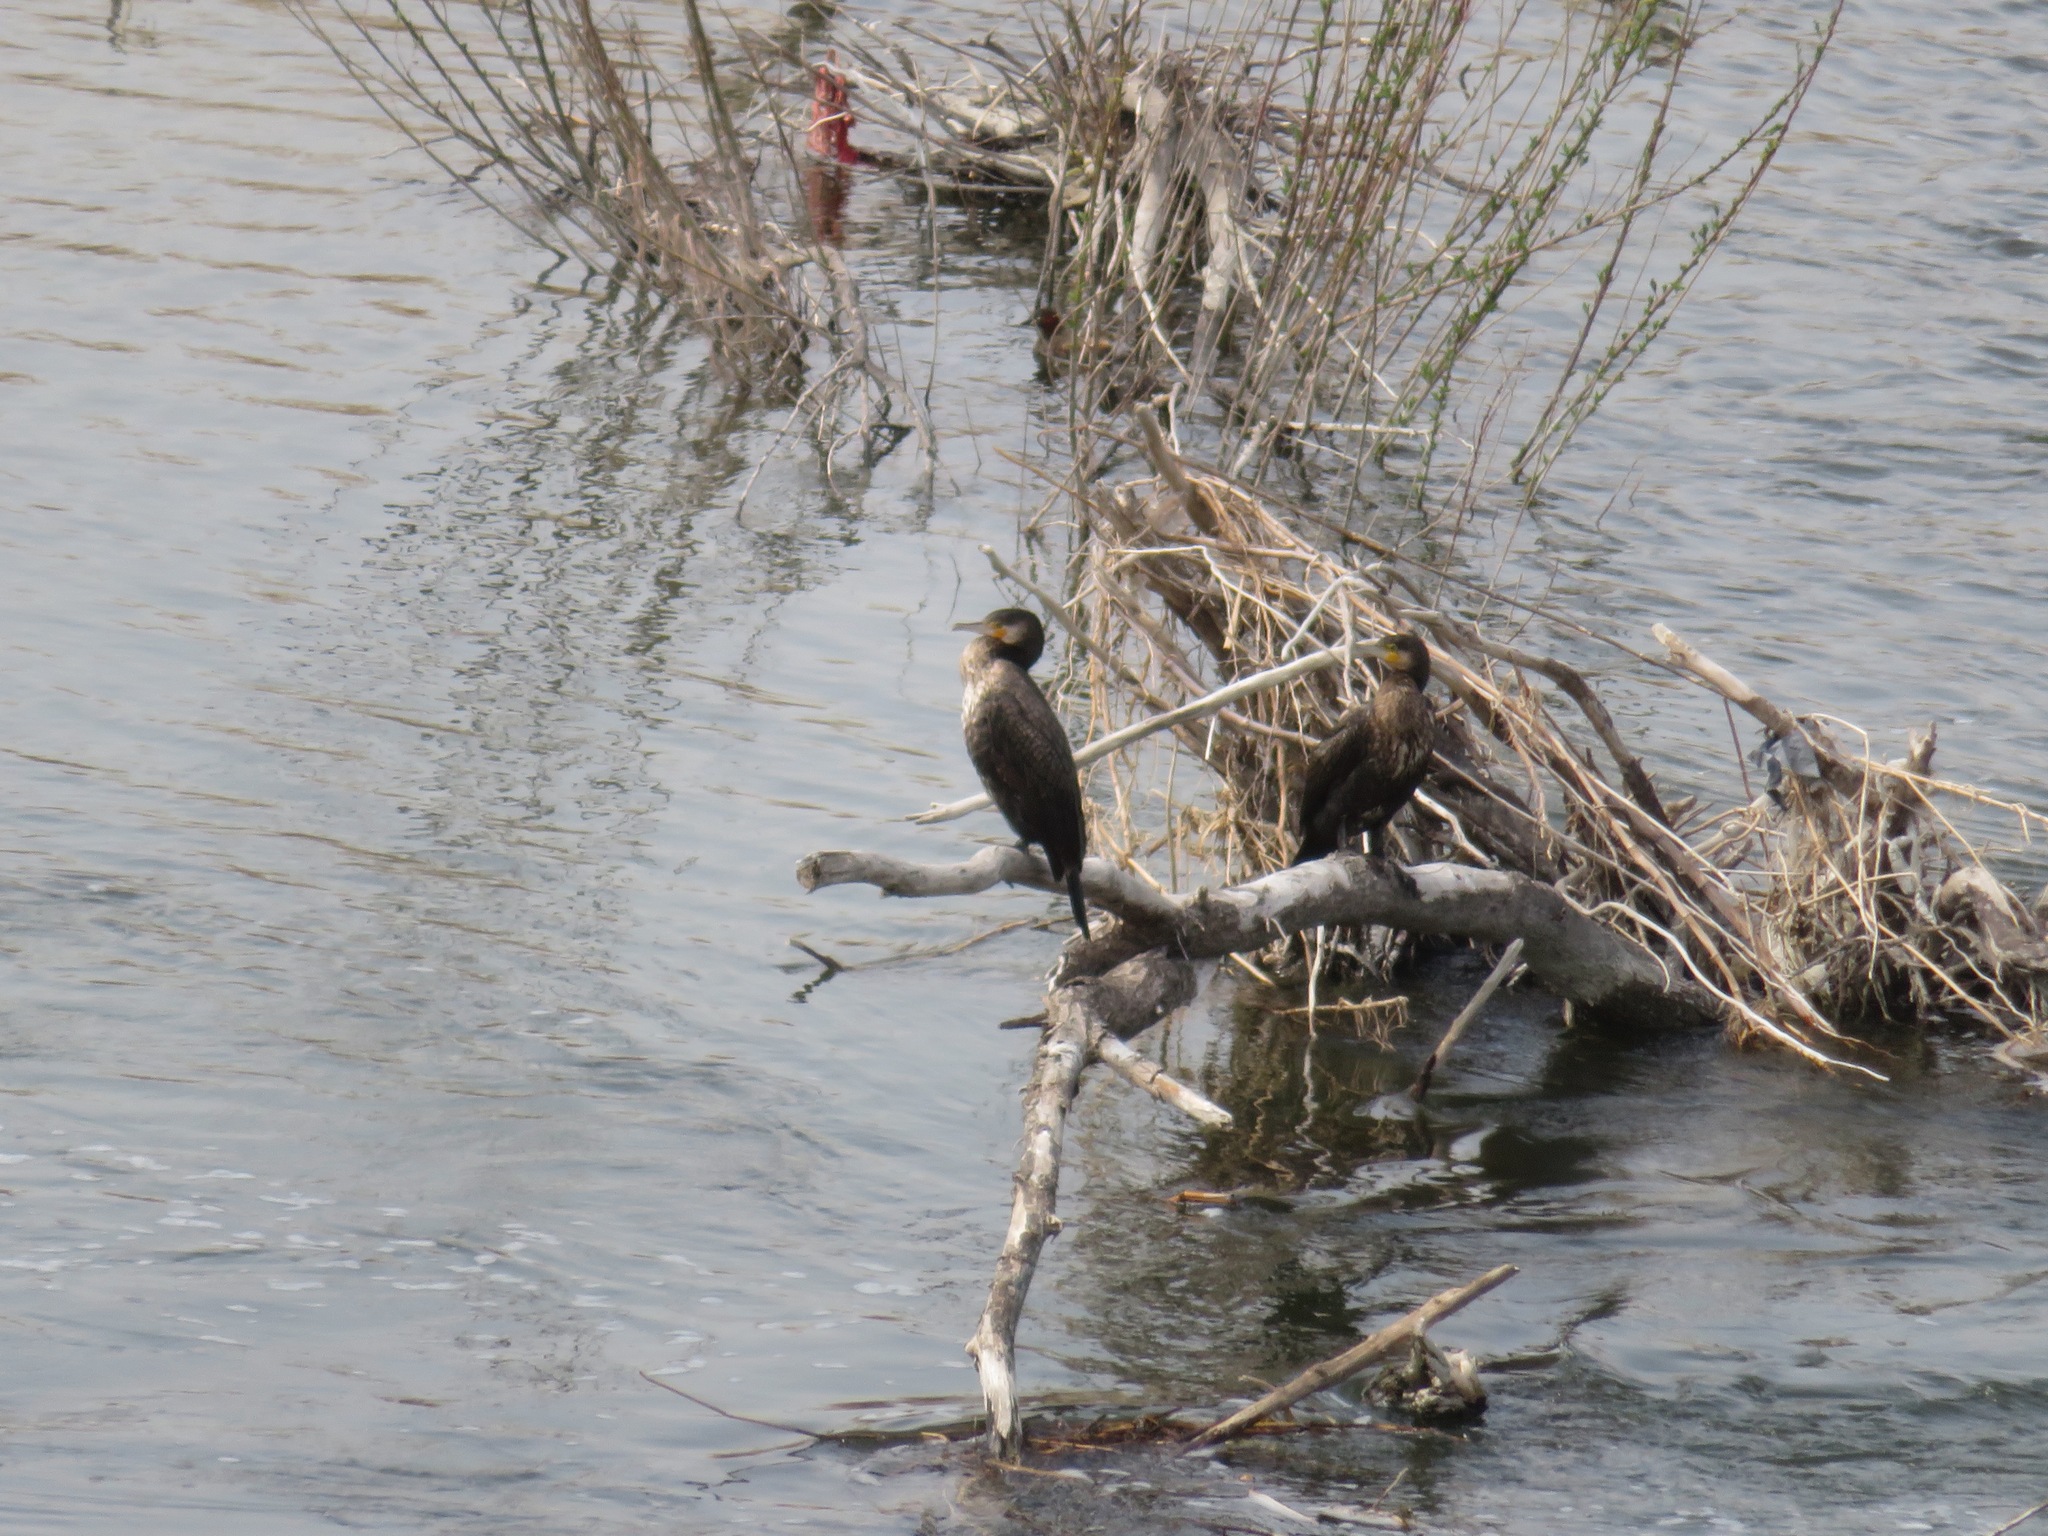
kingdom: Animalia
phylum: Chordata
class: Aves
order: Suliformes
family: Phalacrocoracidae
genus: Phalacrocorax
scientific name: Phalacrocorax carbo
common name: Great cormorant
